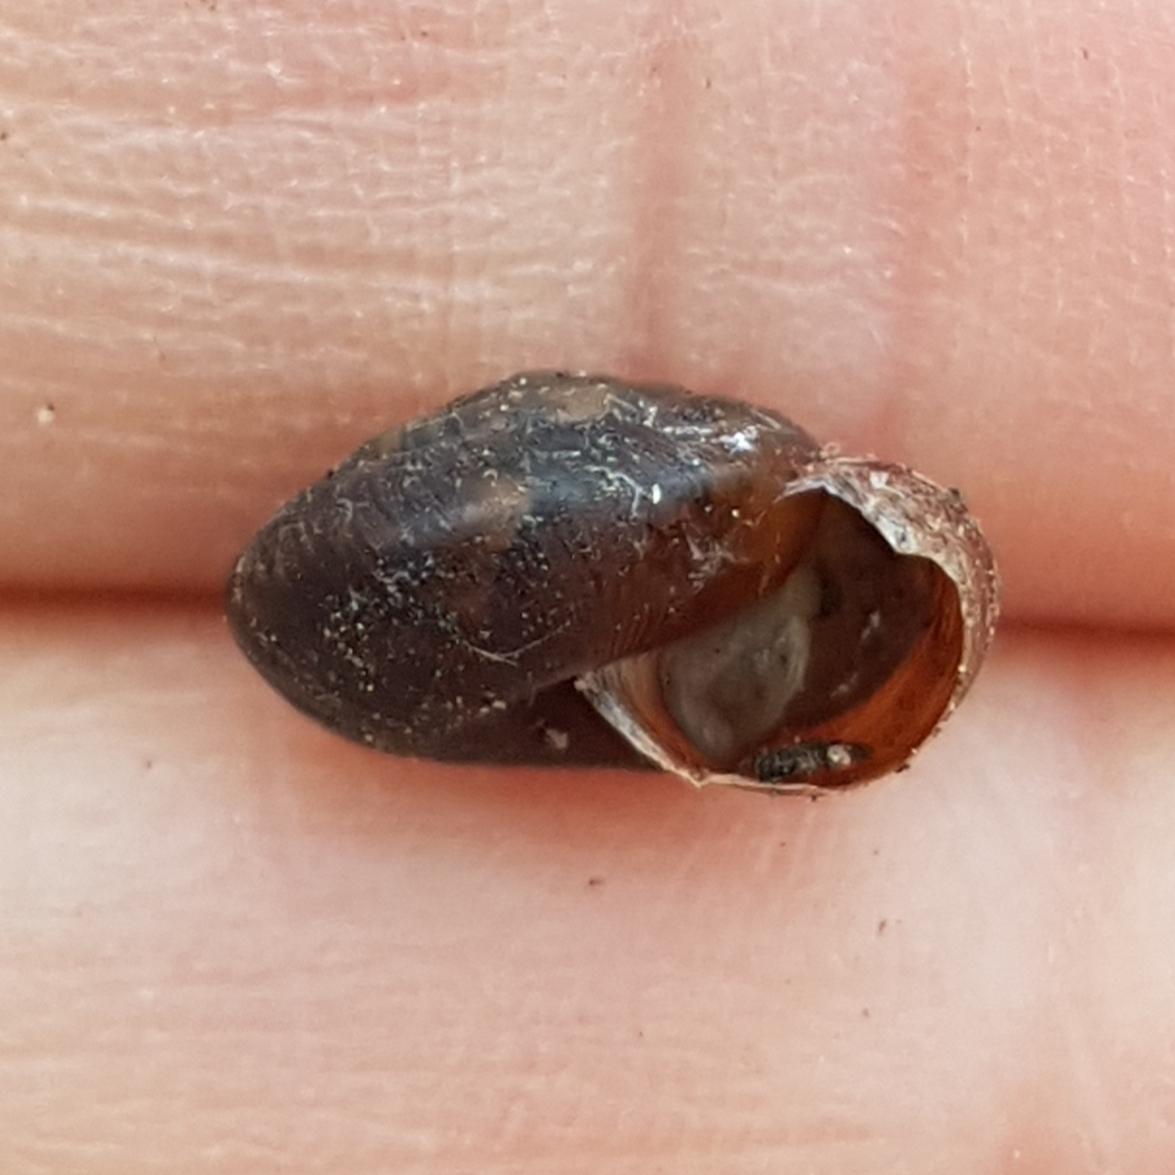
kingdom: Animalia
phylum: Mollusca
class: Gastropoda
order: Stylommatophora
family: Hygromiidae
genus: Trochulus
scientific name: Trochulus striolatus
